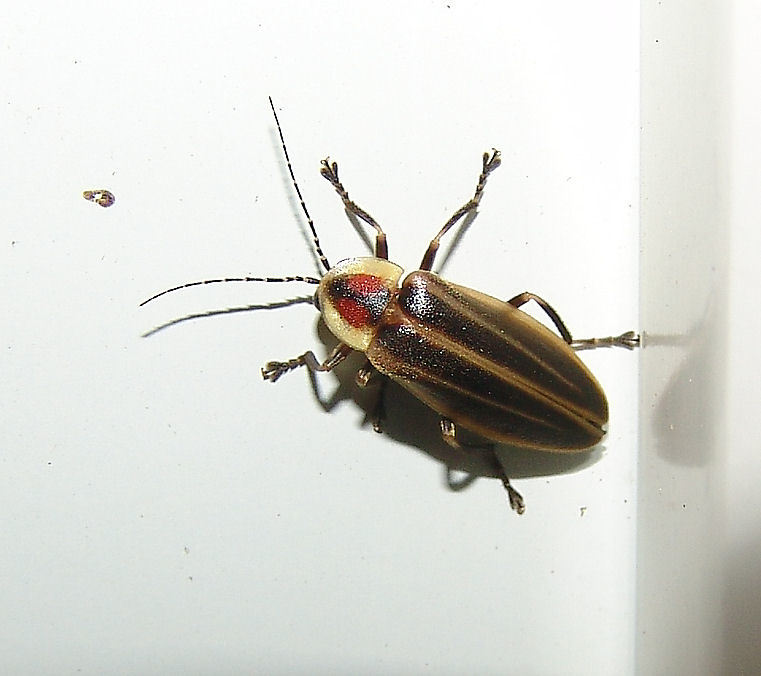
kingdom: Animalia
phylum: Arthropoda
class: Insecta
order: Coleoptera
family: Lampyridae
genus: Photuris
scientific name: Photuris
